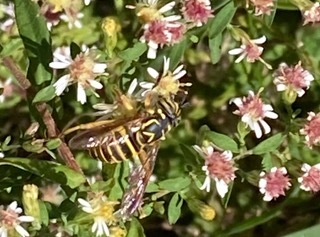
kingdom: Animalia
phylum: Arthropoda
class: Insecta
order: Diptera
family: Syrphidae
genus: Spilomyia
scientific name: Spilomyia longicornis
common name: Eastern hornet fly
